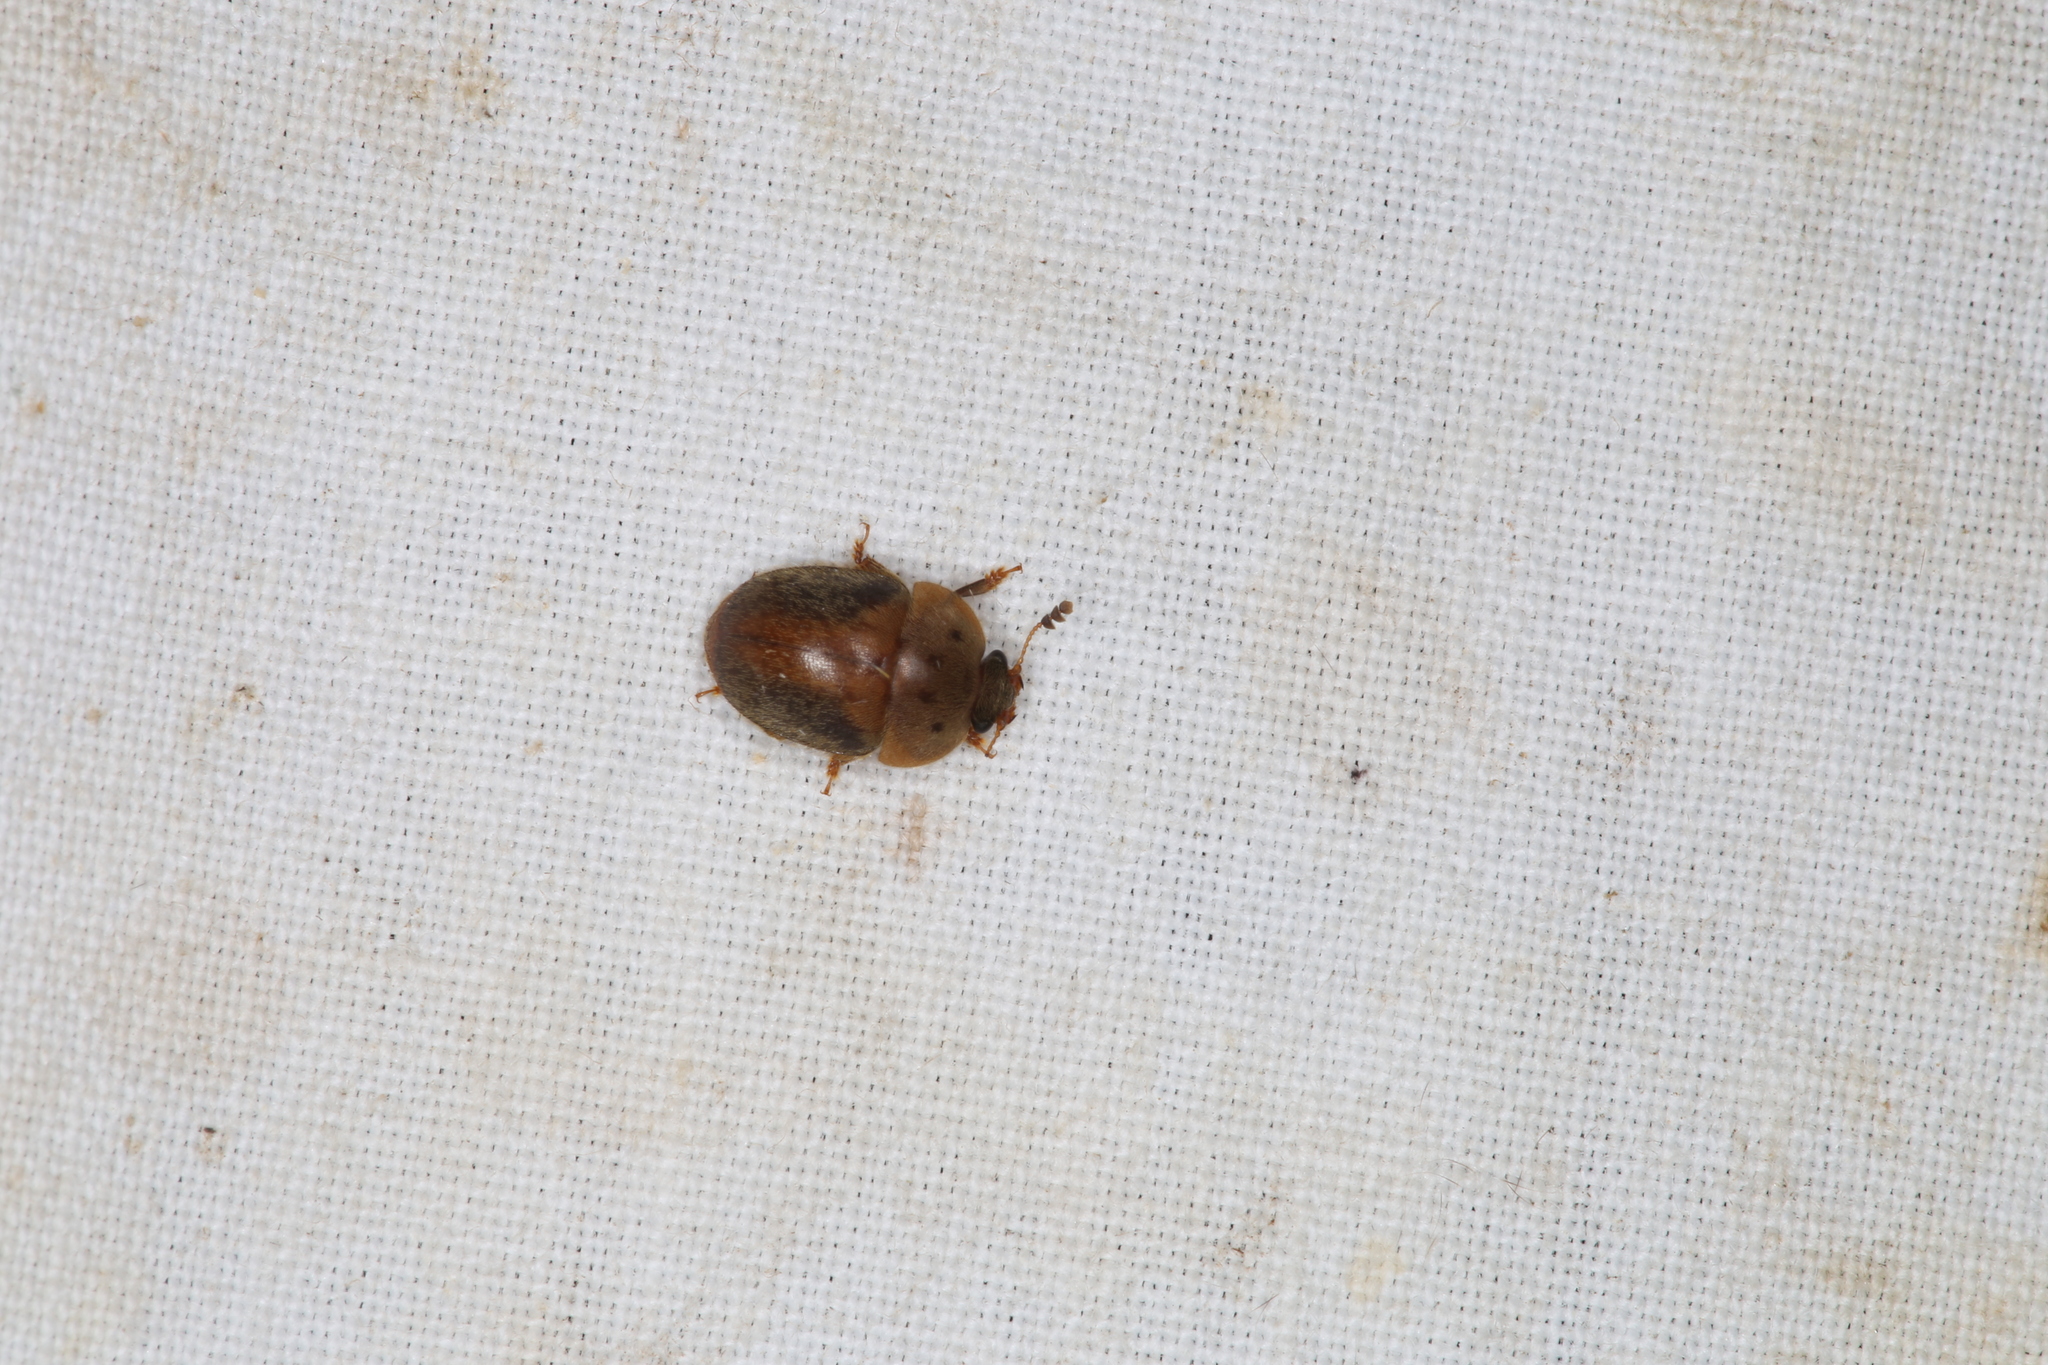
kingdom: Animalia
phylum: Arthropoda
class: Insecta
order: Coleoptera
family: Nitidulidae
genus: Cychramus
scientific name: Cychramus variegatus
